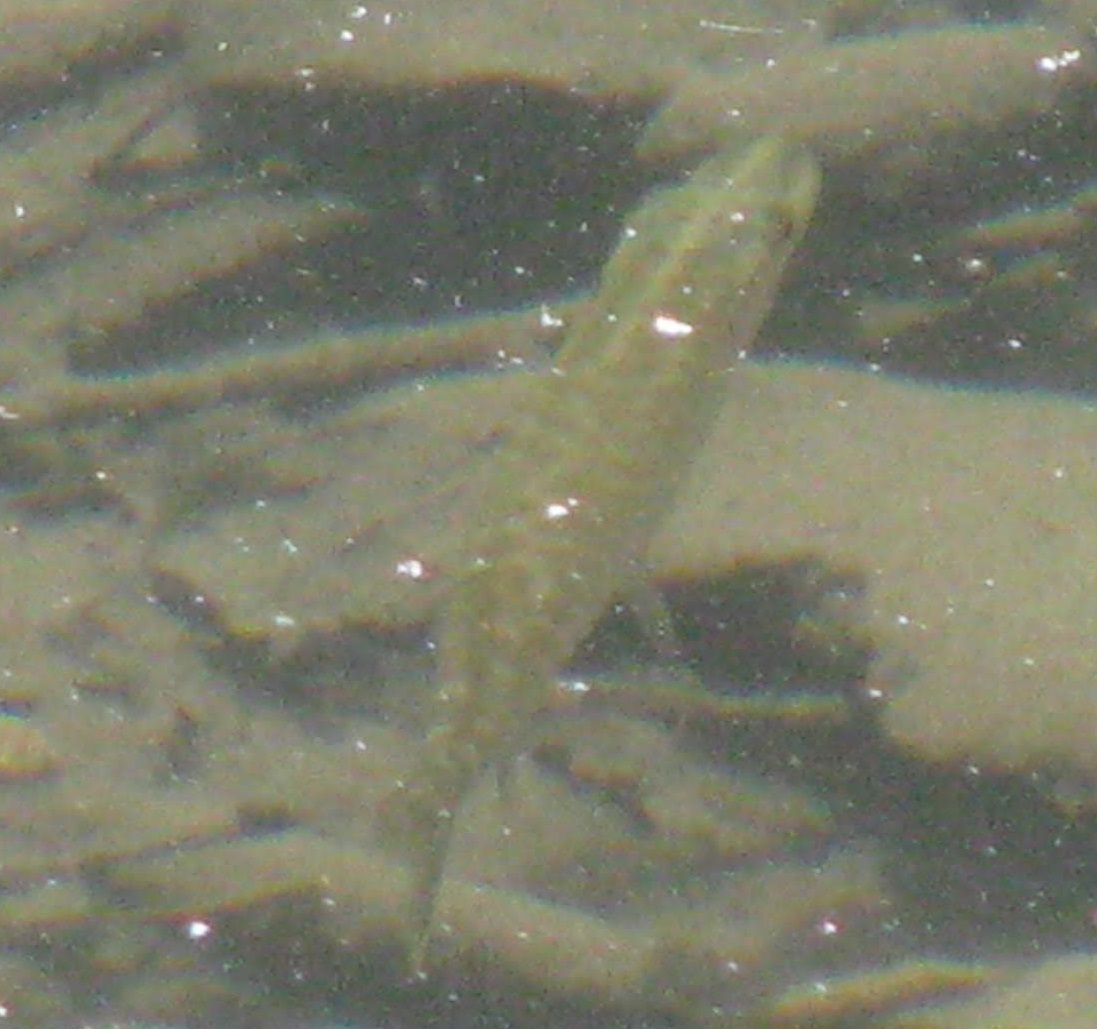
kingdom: Animalia
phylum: Chordata
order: Esociformes
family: Esocidae
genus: Esox
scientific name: Esox lucius
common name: Northern pike
